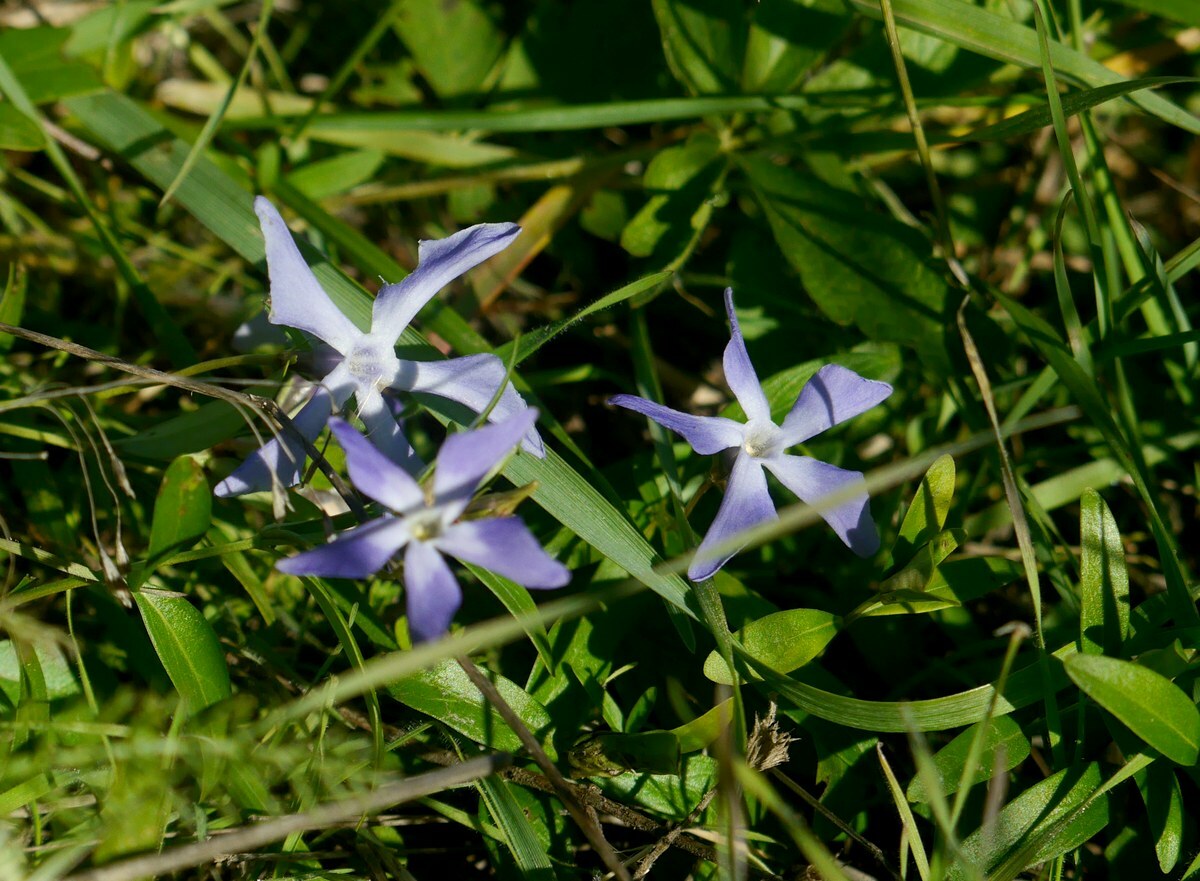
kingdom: Plantae
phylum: Tracheophyta
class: Magnoliopsida
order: Gentianales
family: Apocynaceae
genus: Vinca
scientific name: Vinca herbacea
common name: Herbaceous periwinkle
